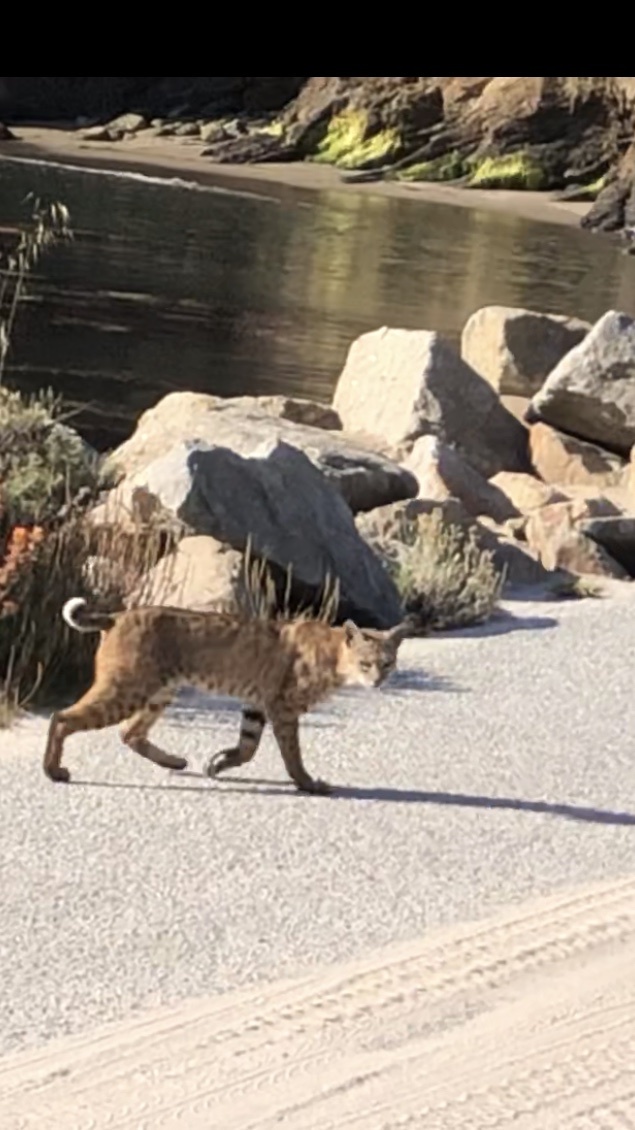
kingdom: Animalia
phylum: Chordata
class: Mammalia
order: Carnivora
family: Felidae
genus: Lynx
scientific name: Lynx rufus
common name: Bobcat
